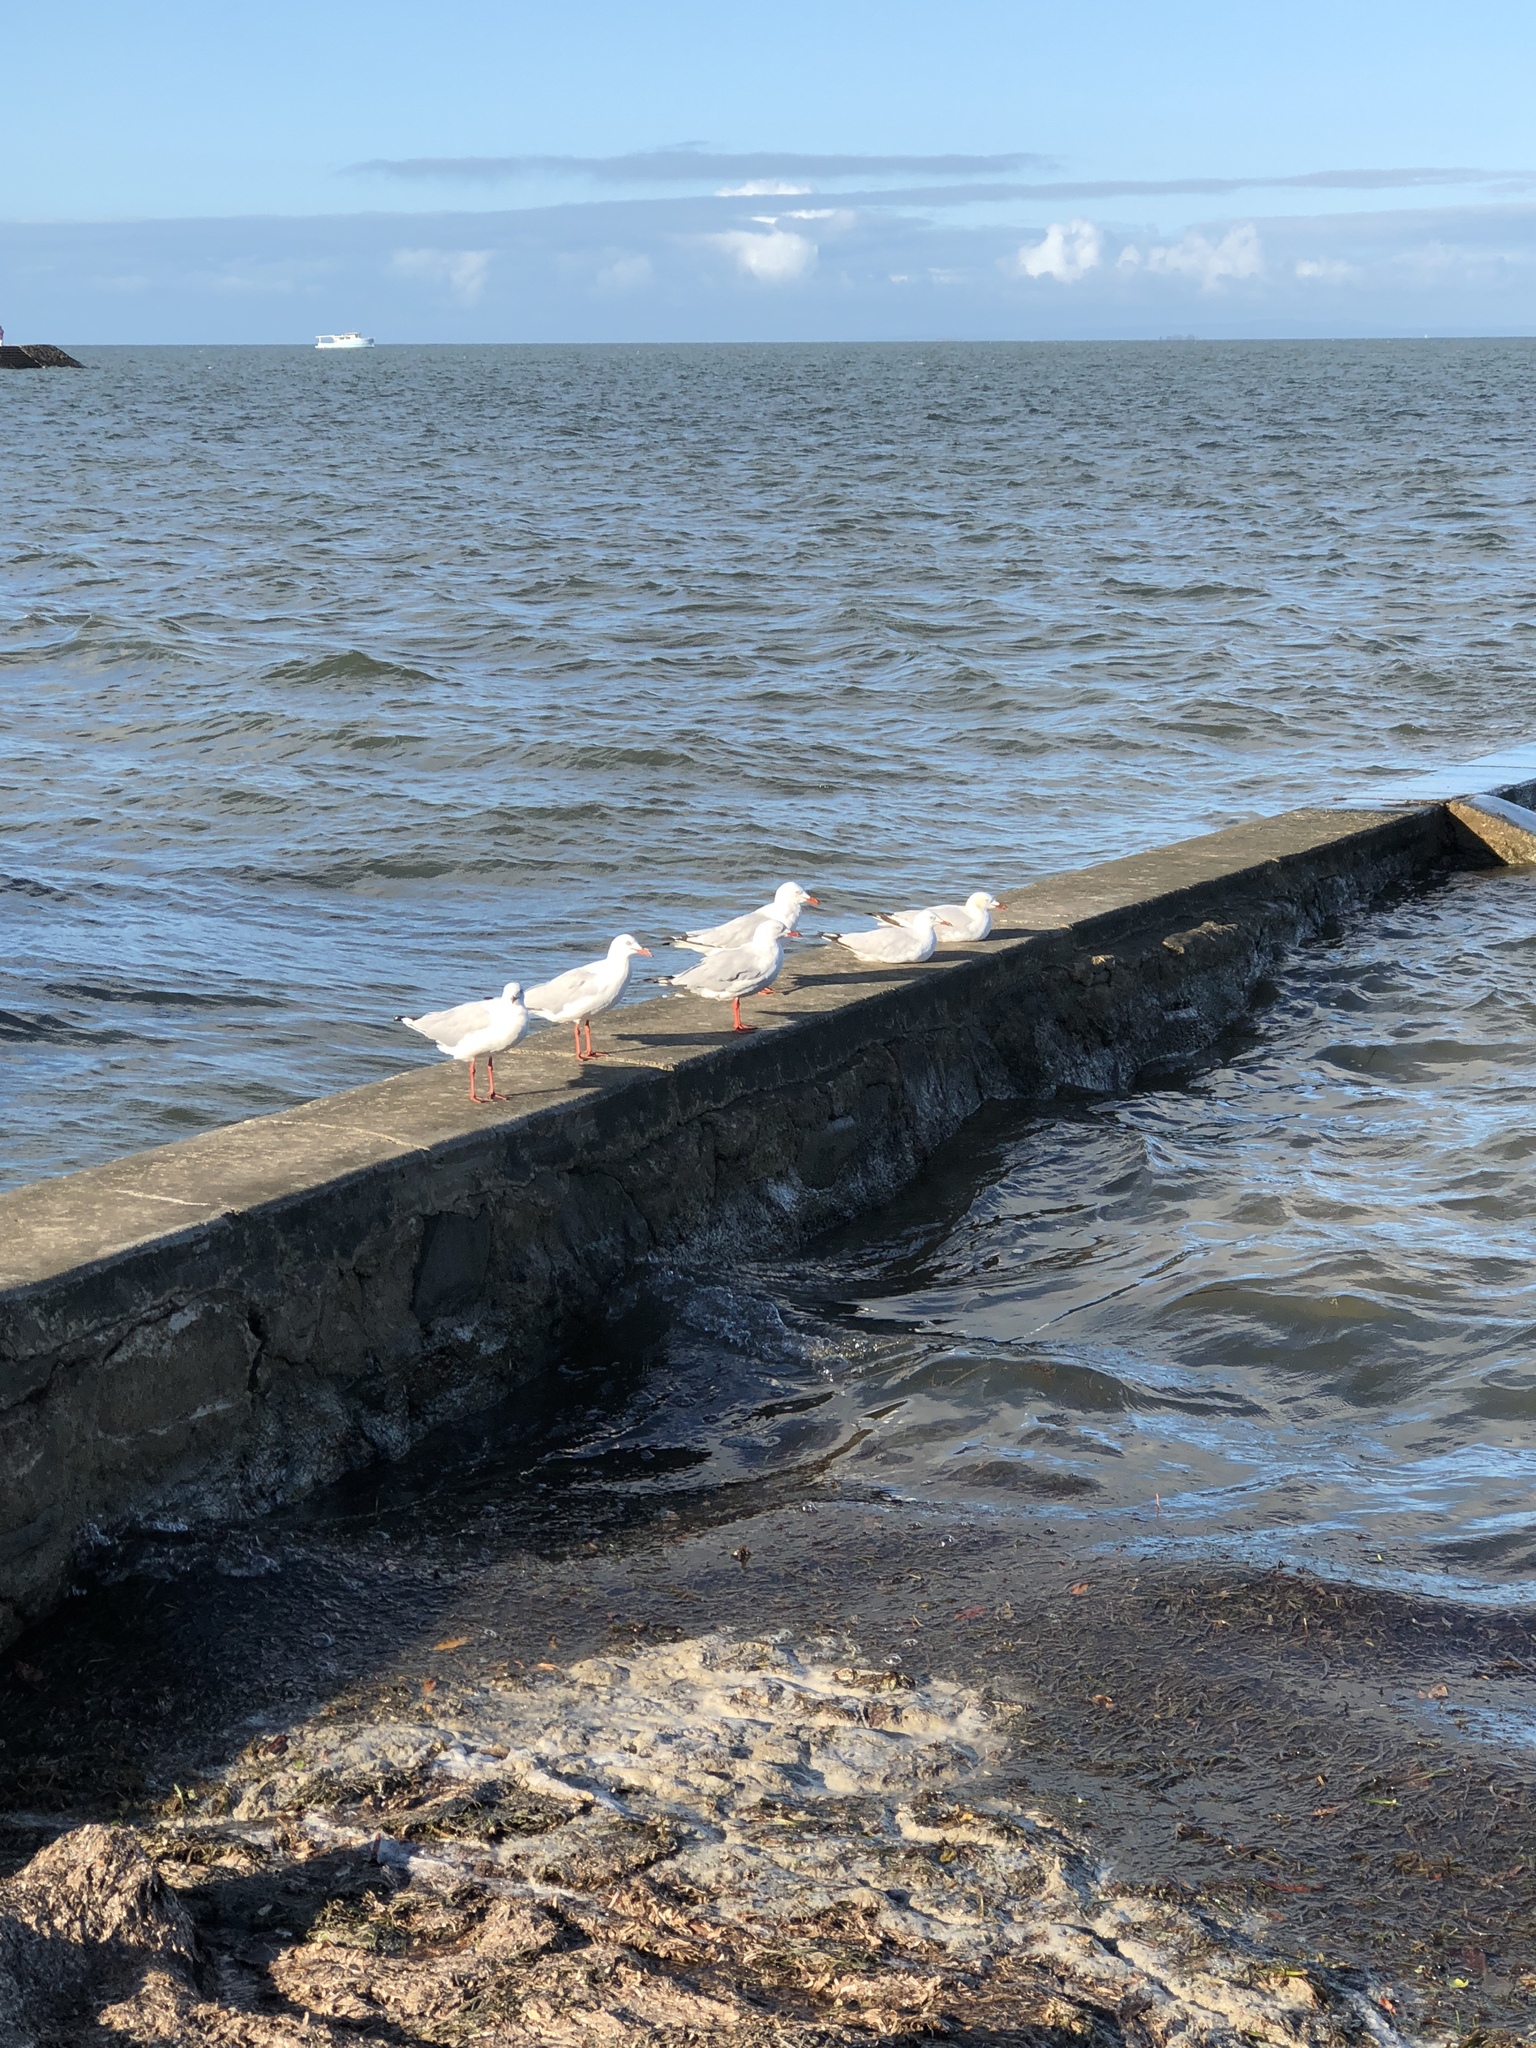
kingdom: Animalia
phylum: Chordata
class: Aves
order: Charadriiformes
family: Laridae
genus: Chroicocephalus
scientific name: Chroicocephalus novaehollandiae
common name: Silver gull
